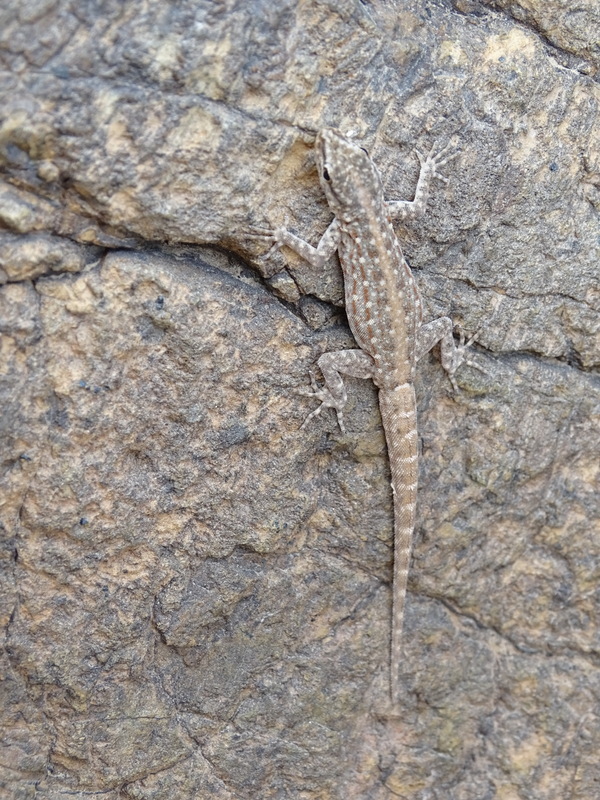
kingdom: Animalia
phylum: Chordata
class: Squamata
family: Sphaerodactylidae
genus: Pristurus
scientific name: Pristurus rupestris
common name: Blanford’s semaphore gecko
